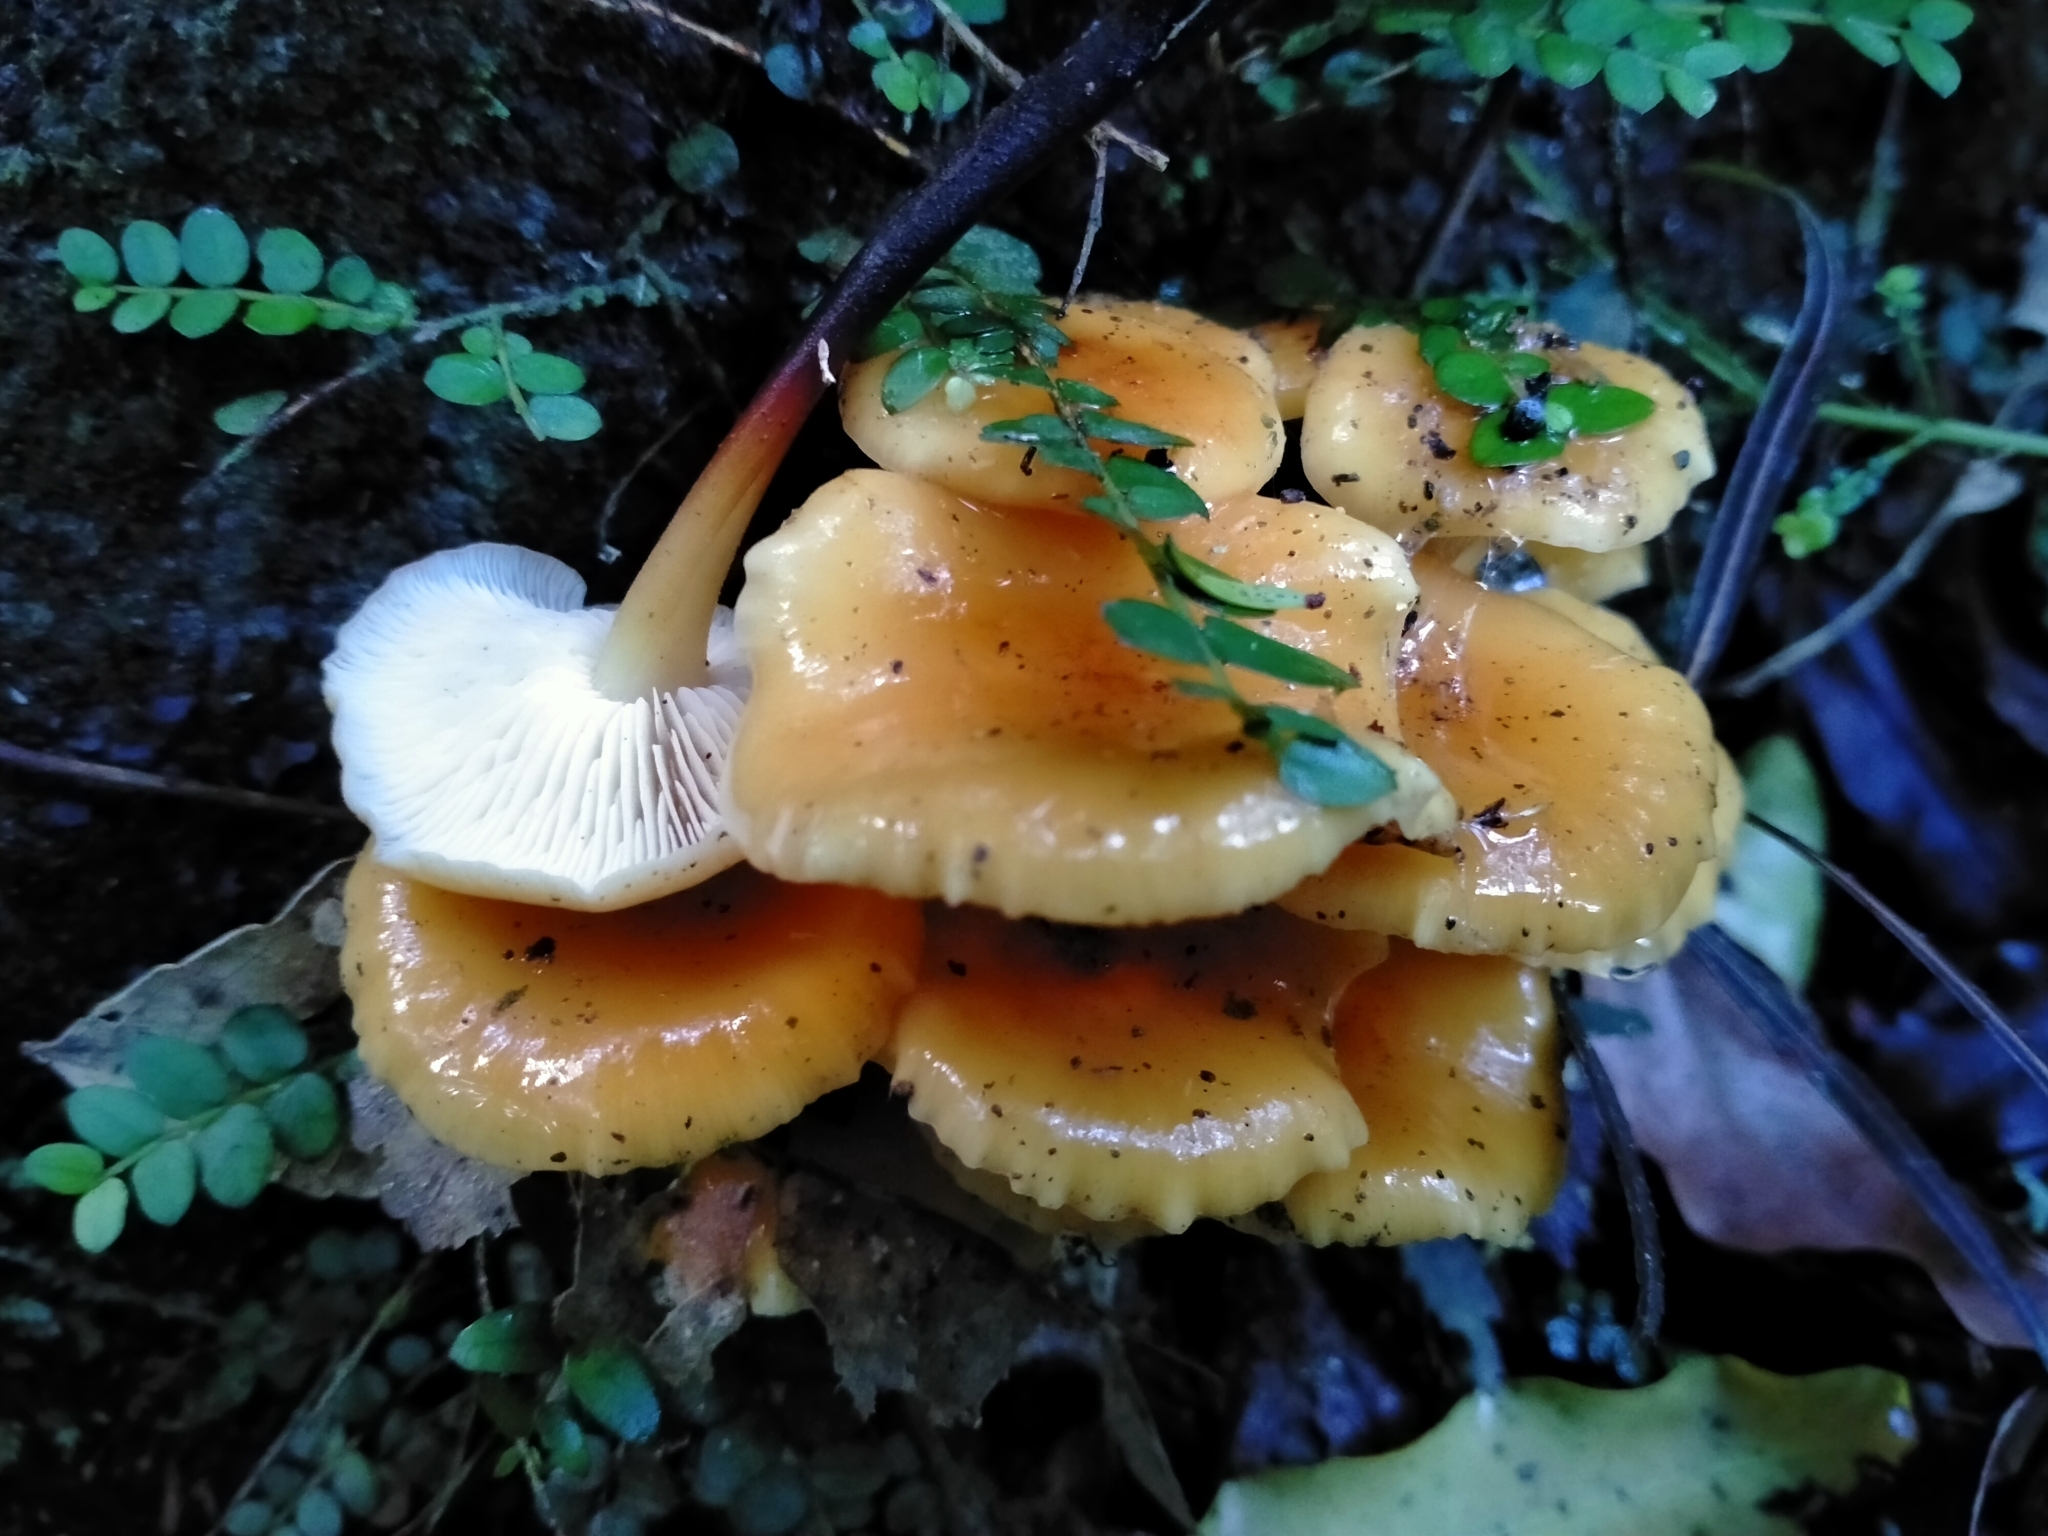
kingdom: Fungi
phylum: Basidiomycota
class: Agaricomycetes
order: Agaricales
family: Physalacriaceae
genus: Flammulina
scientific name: Flammulina velutipes
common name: Velvet shank
